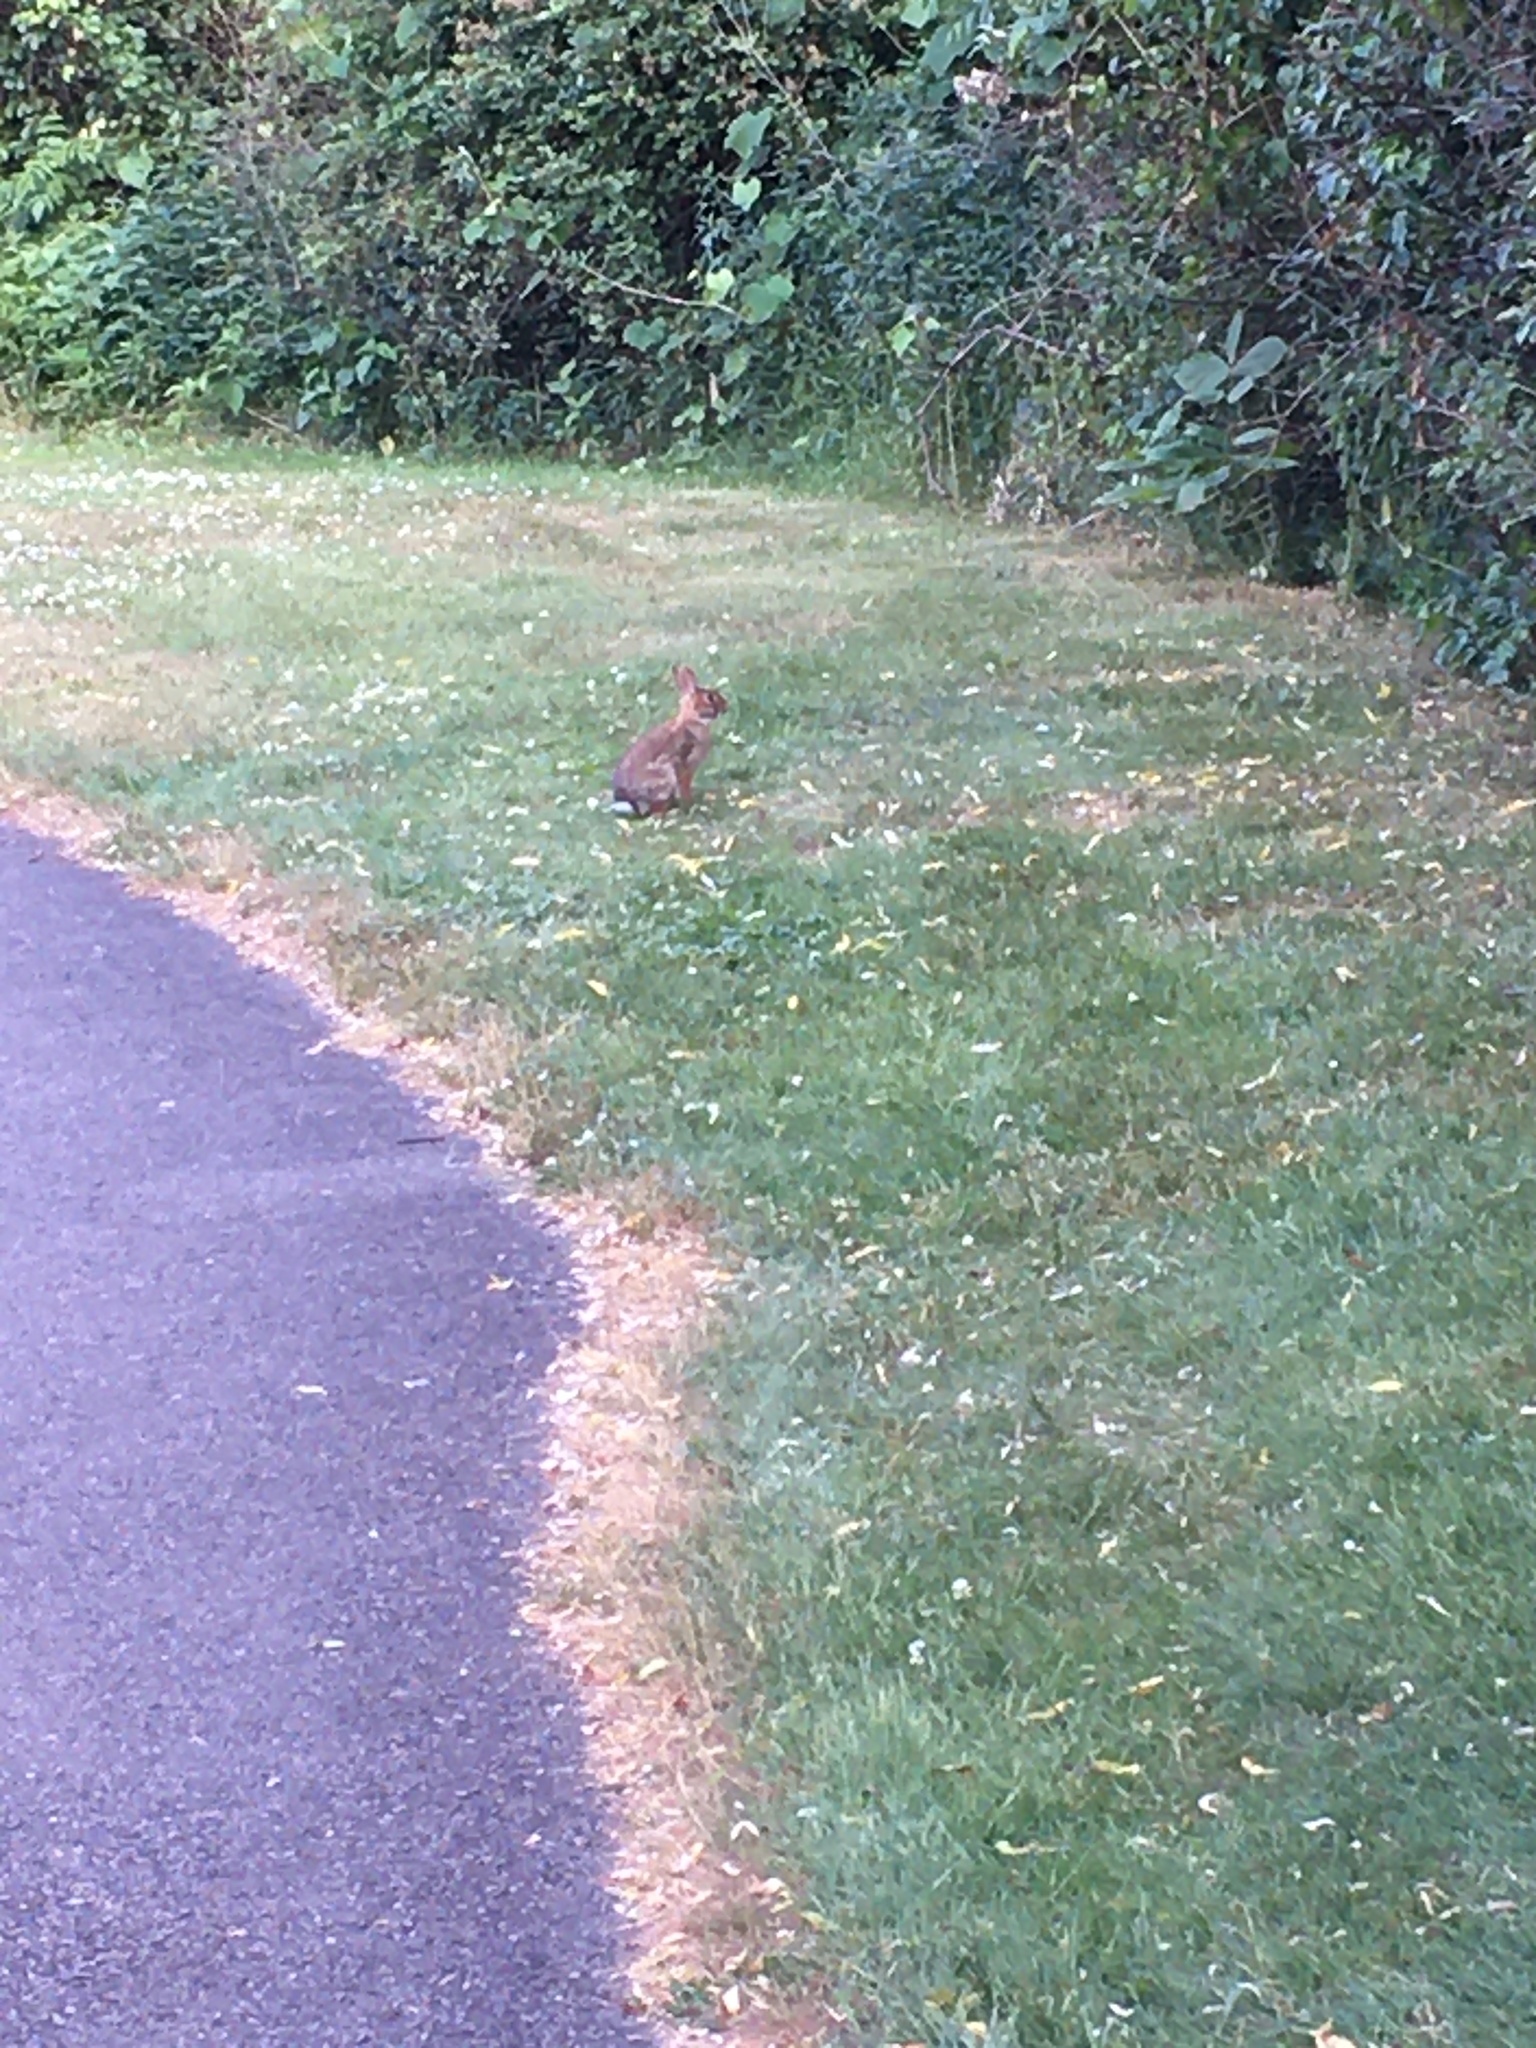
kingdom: Animalia
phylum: Chordata
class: Mammalia
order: Lagomorpha
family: Leporidae
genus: Sylvilagus
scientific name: Sylvilagus floridanus
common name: Eastern cottontail
